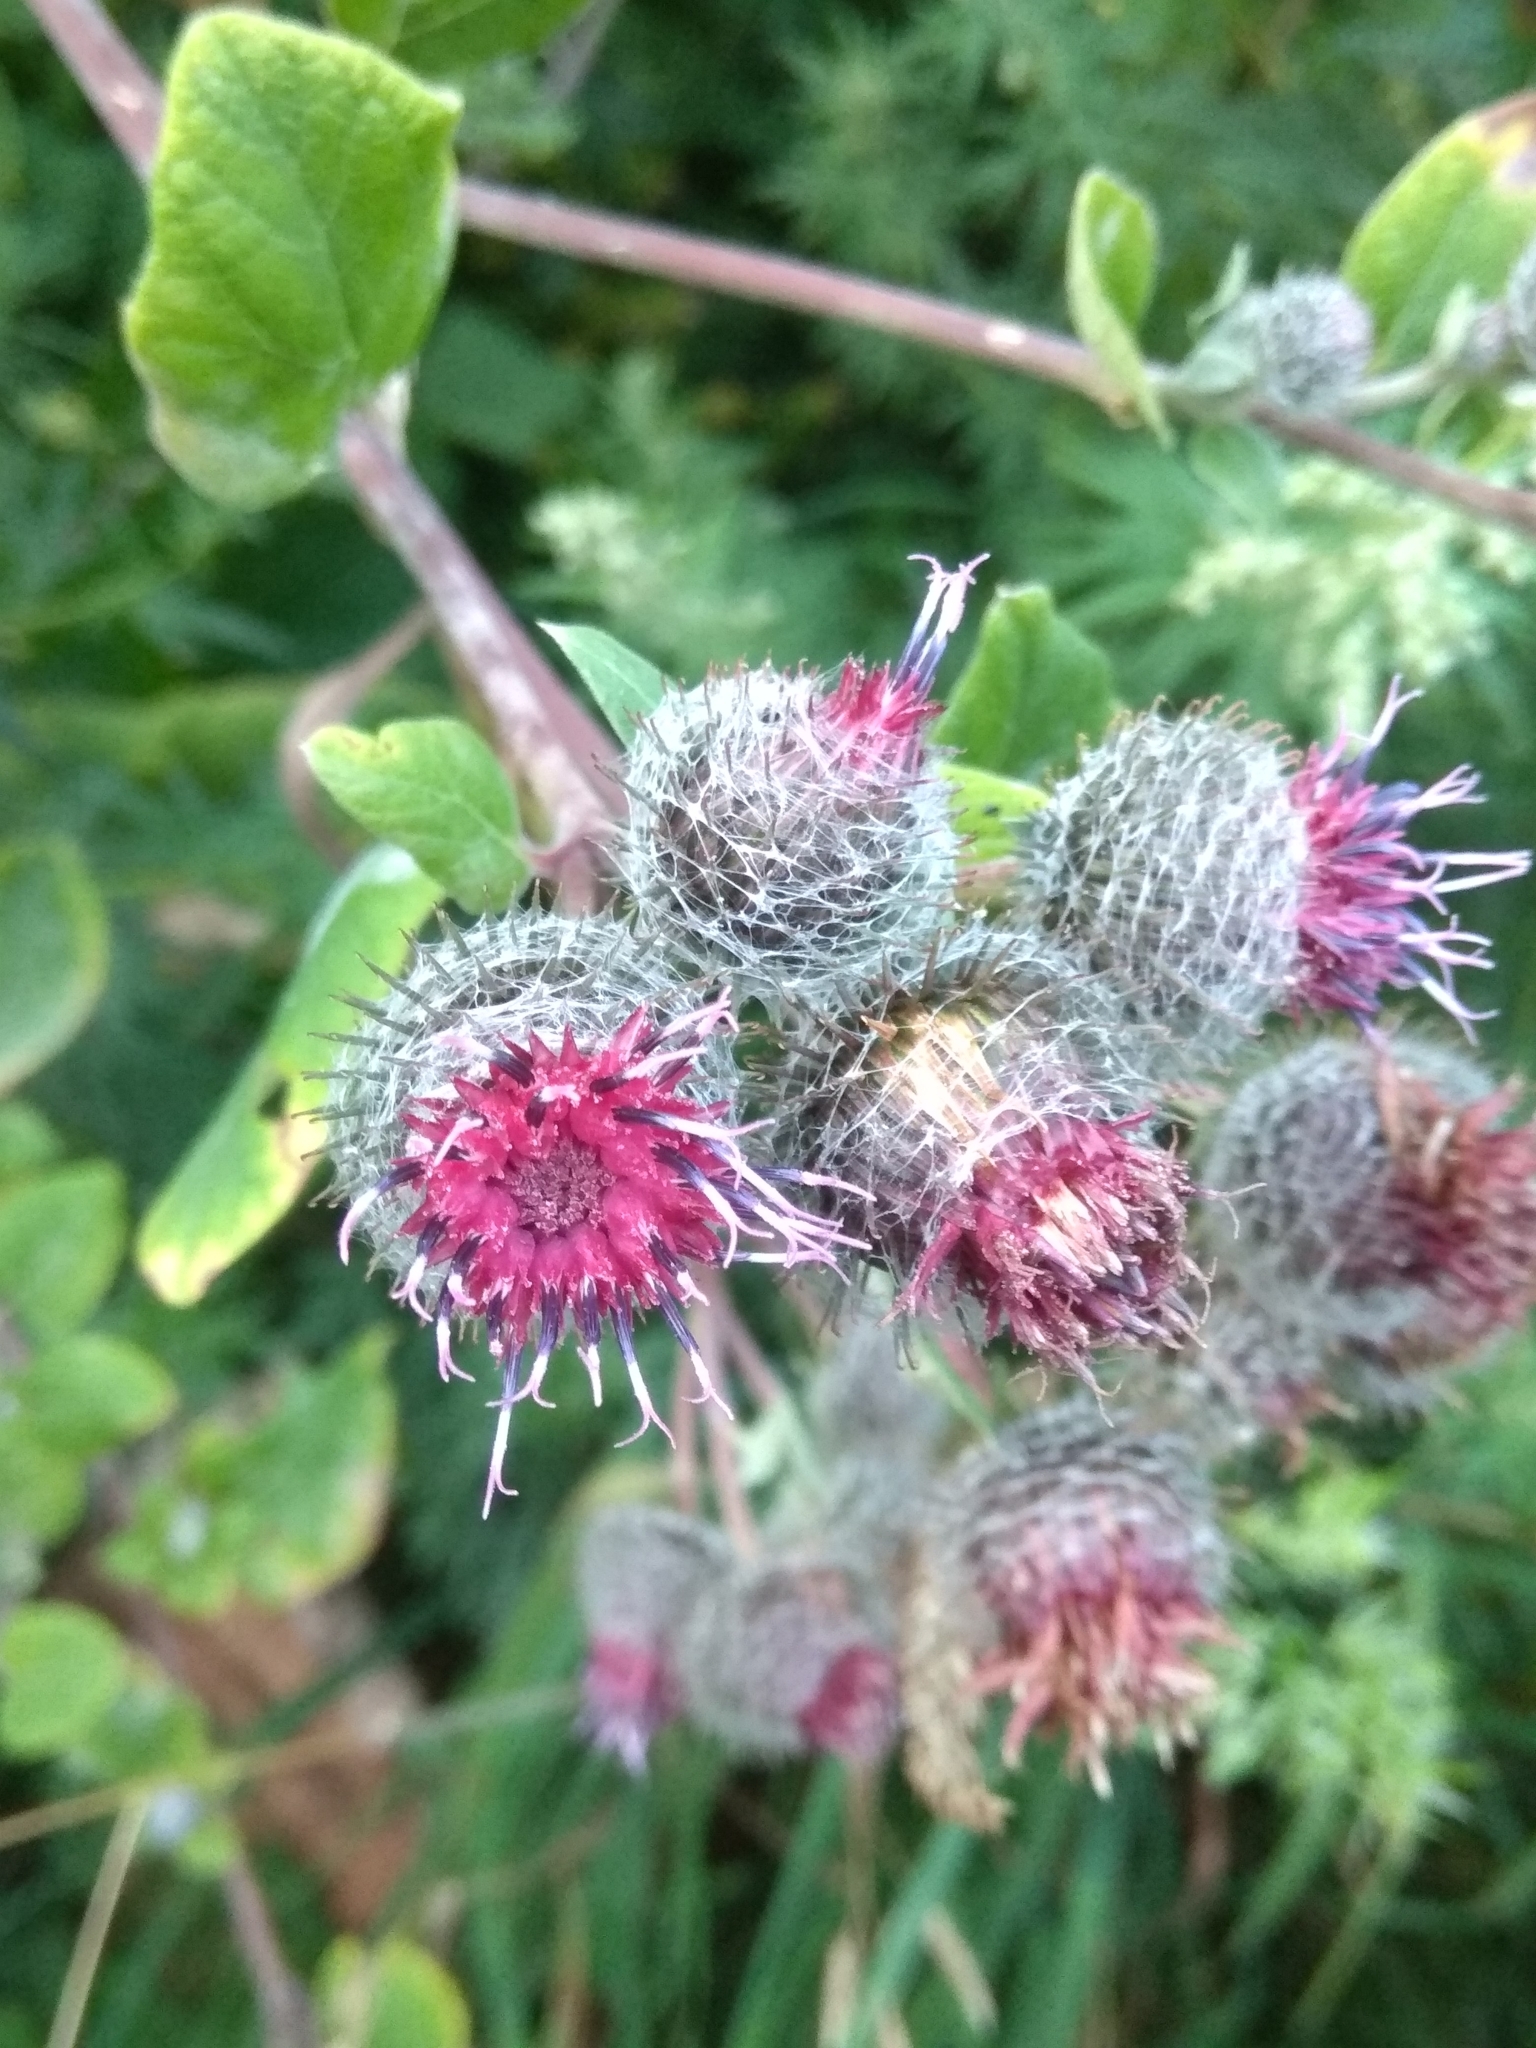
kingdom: Plantae
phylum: Tracheophyta
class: Magnoliopsida
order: Asterales
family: Asteraceae
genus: Arctium
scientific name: Arctium tomentosum
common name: Woolly burdock
